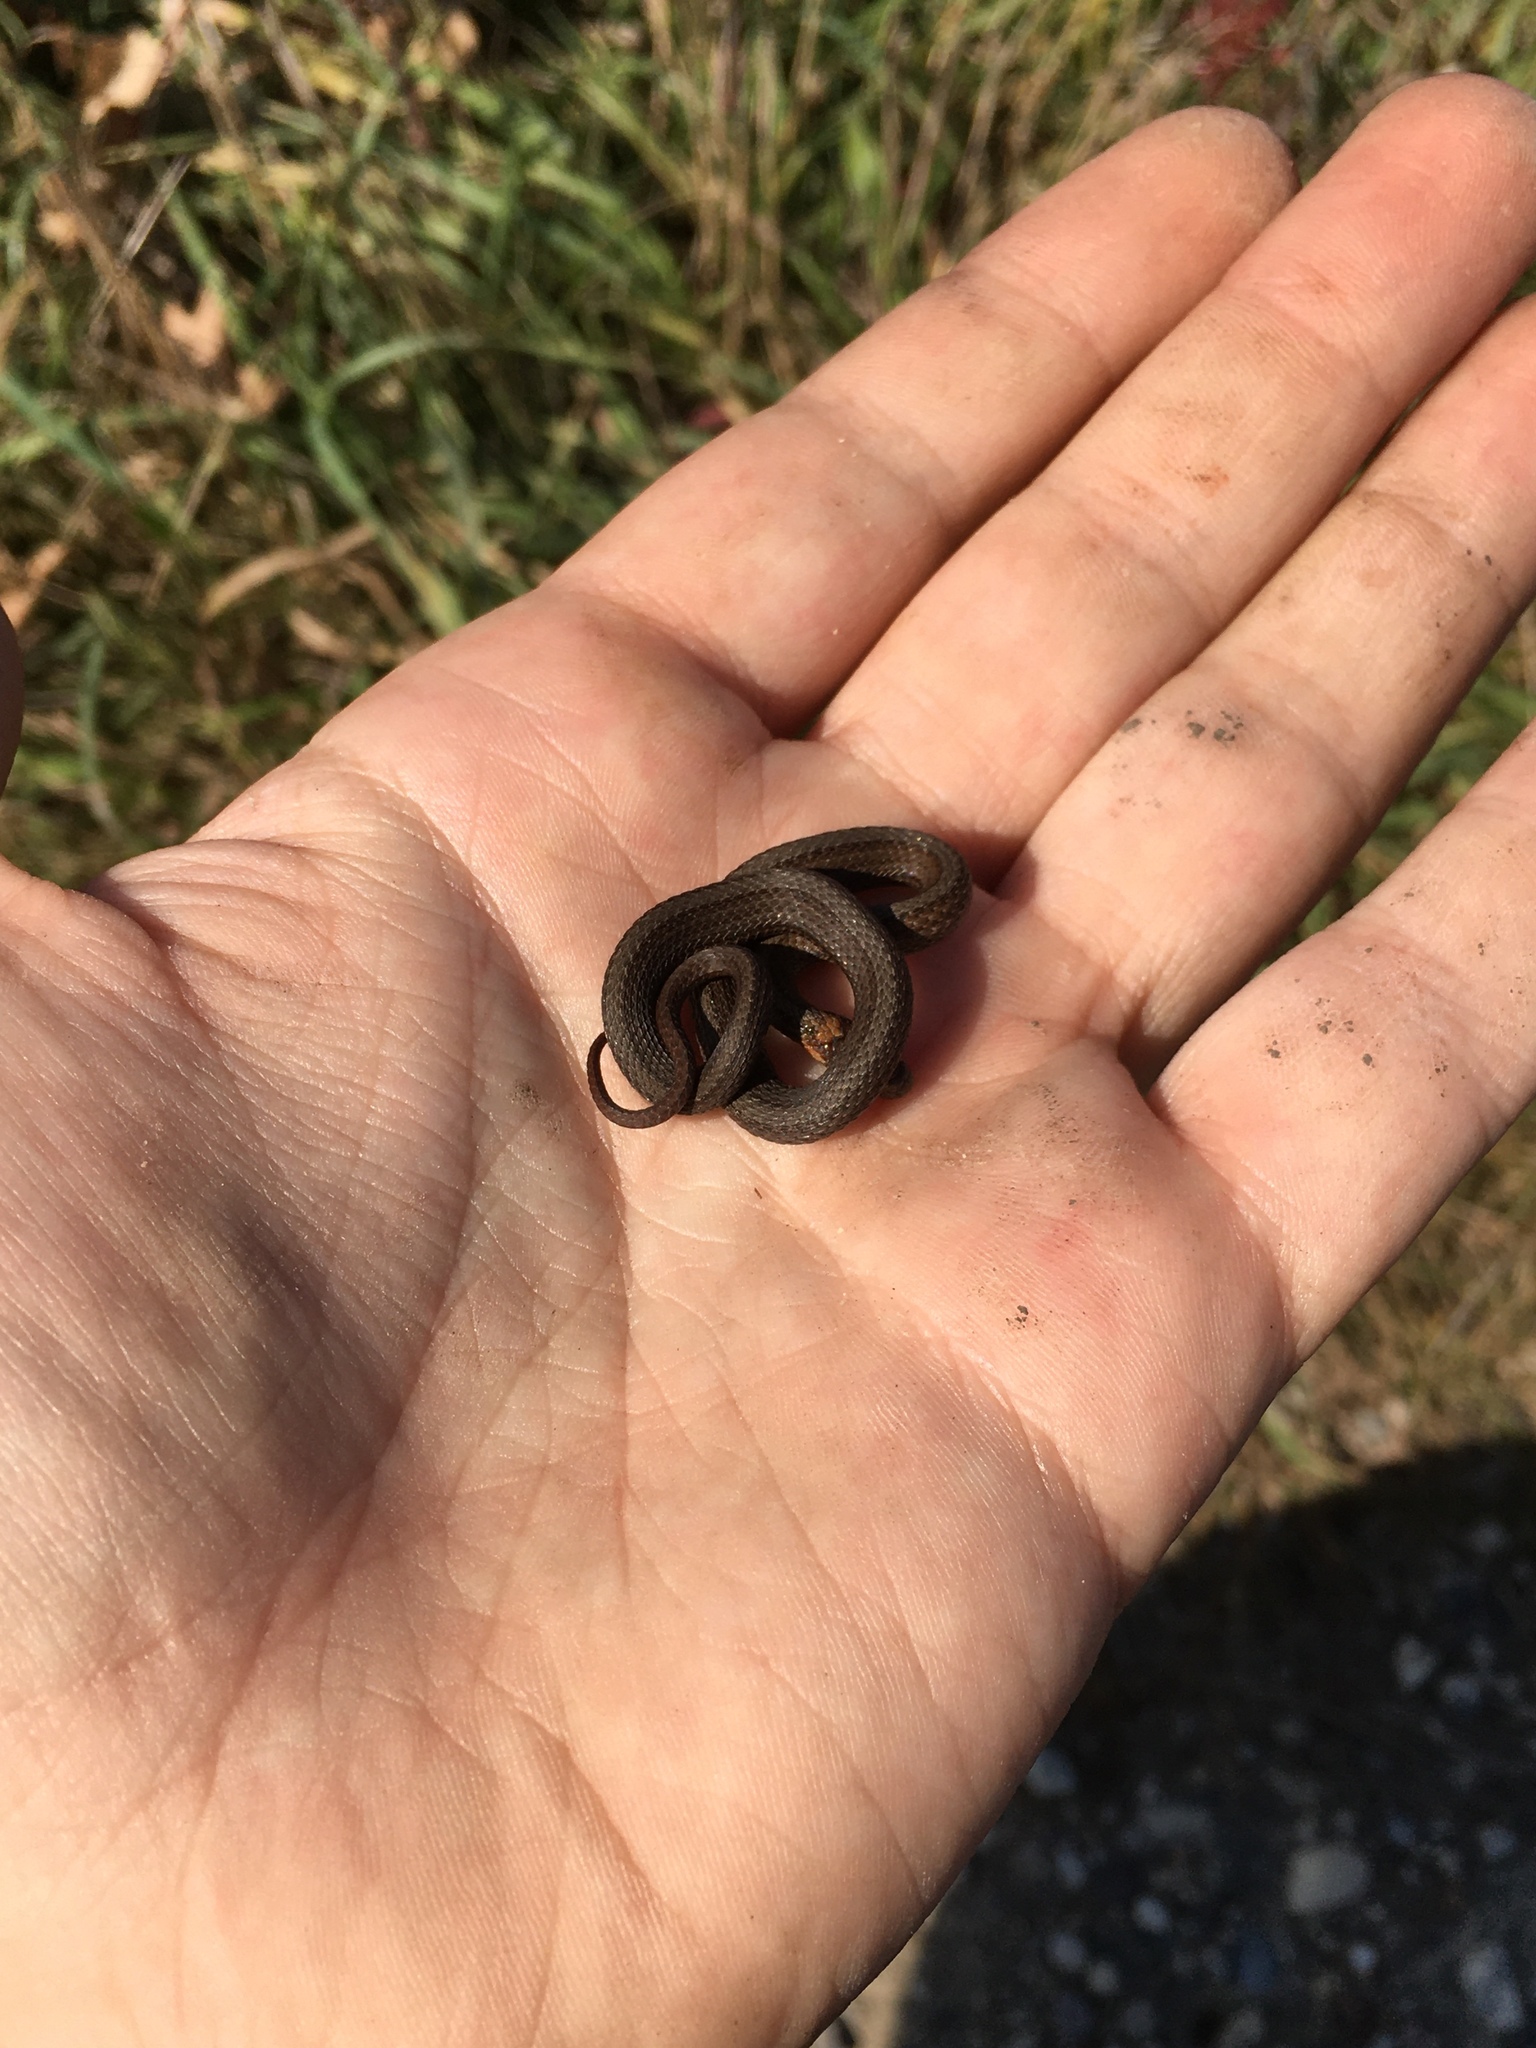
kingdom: Animalia
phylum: Chordata
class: Squamata
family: Colubridae
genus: Storeria
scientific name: Storeria occipitomaculata
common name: Redbelly snake
